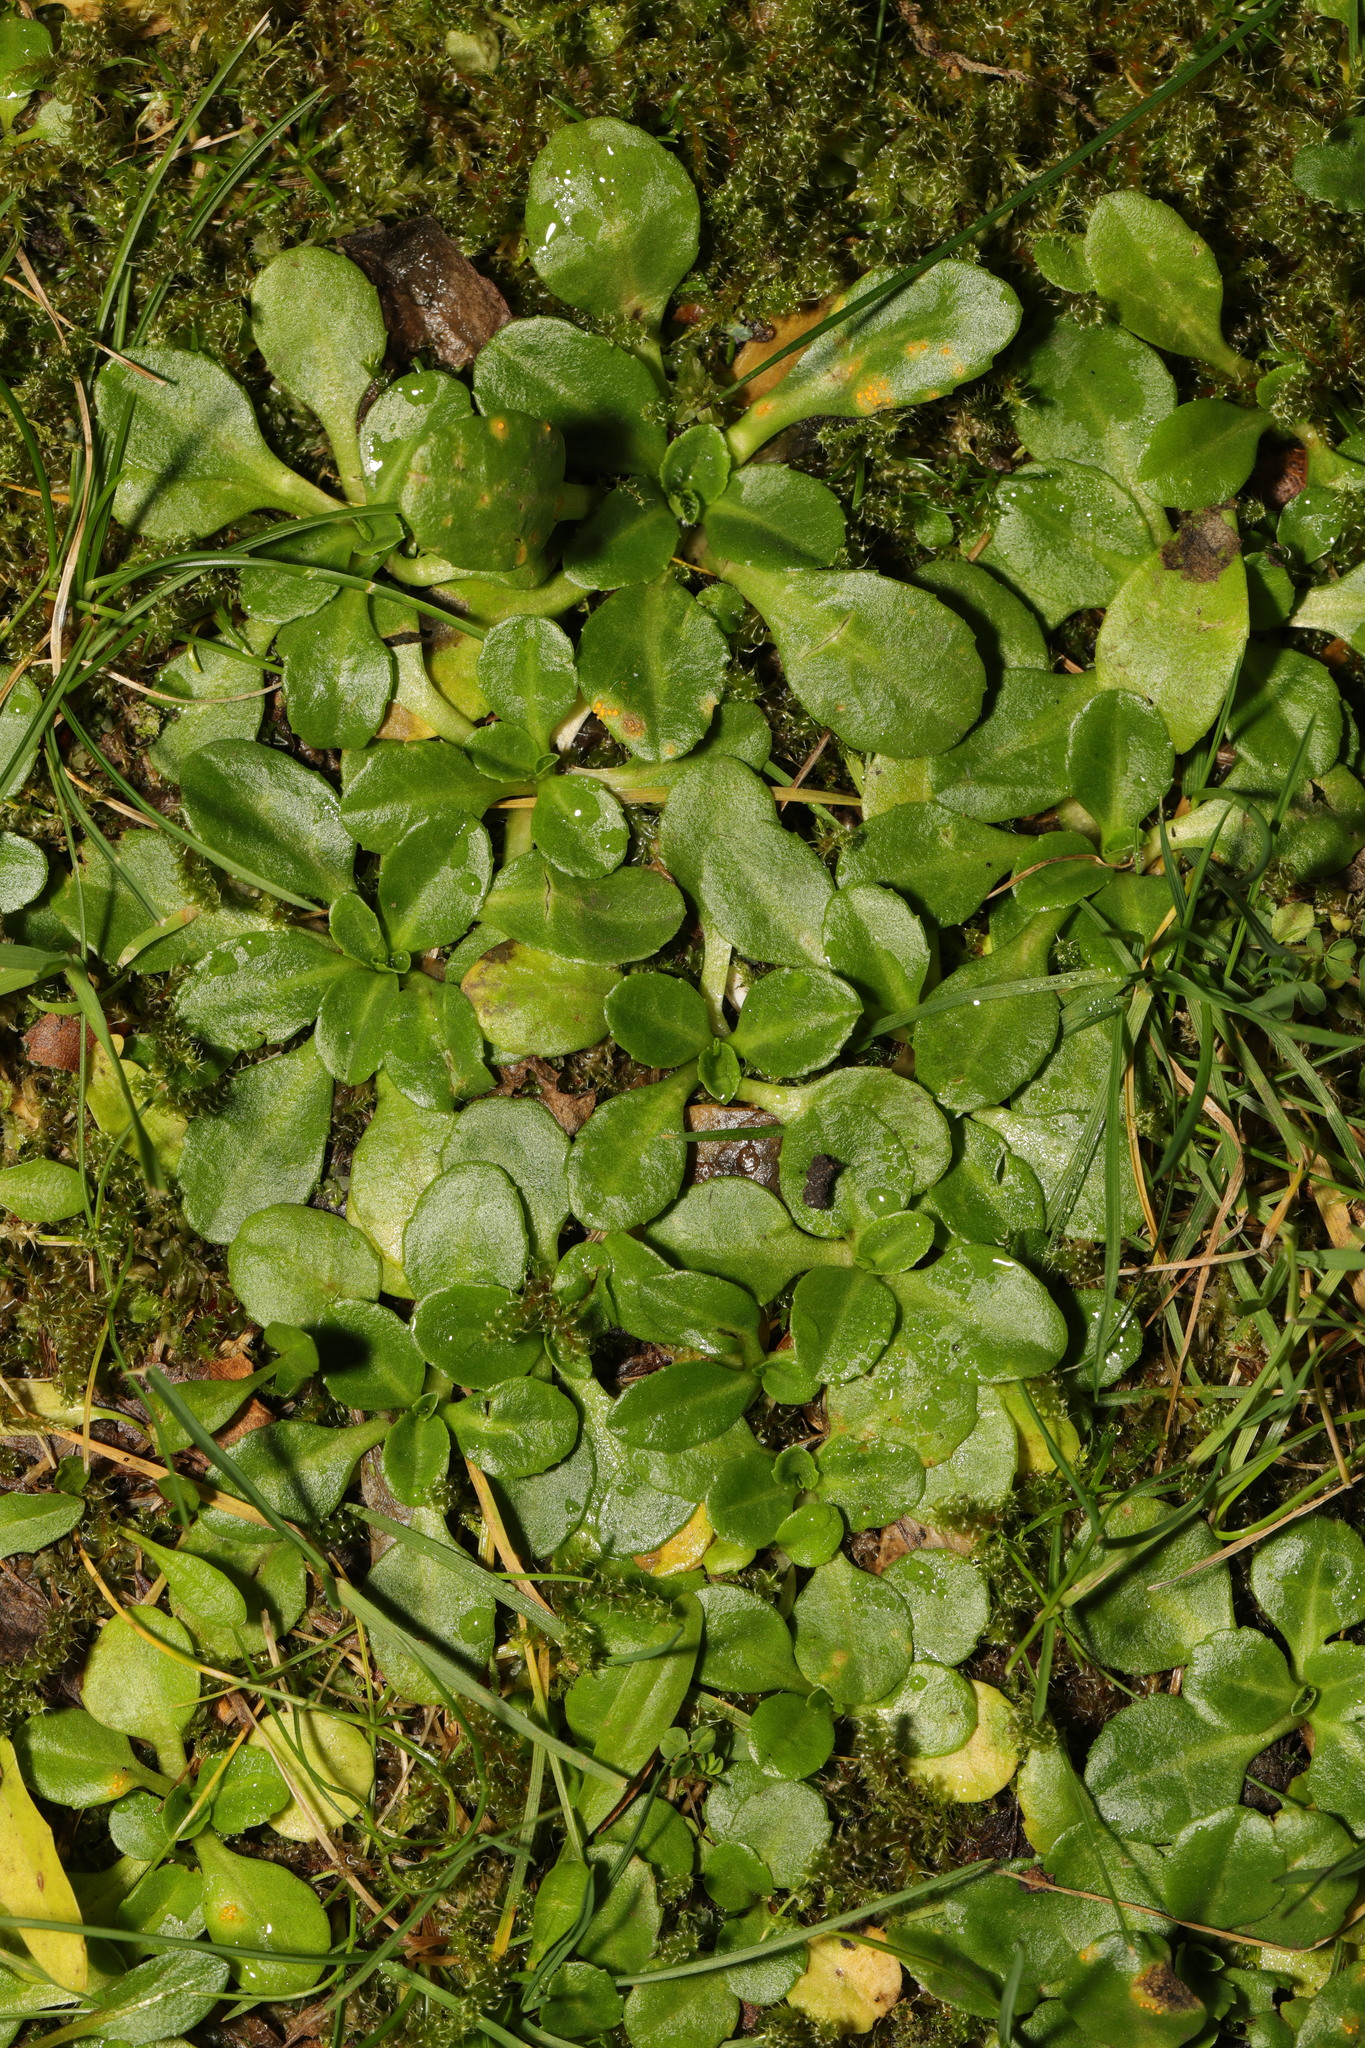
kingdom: Plantae
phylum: Tracheophyta
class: Magnoliopsida
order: Asterales
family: Asteraceae
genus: Bellis
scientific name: Bellis perennis
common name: Lawndaisy
